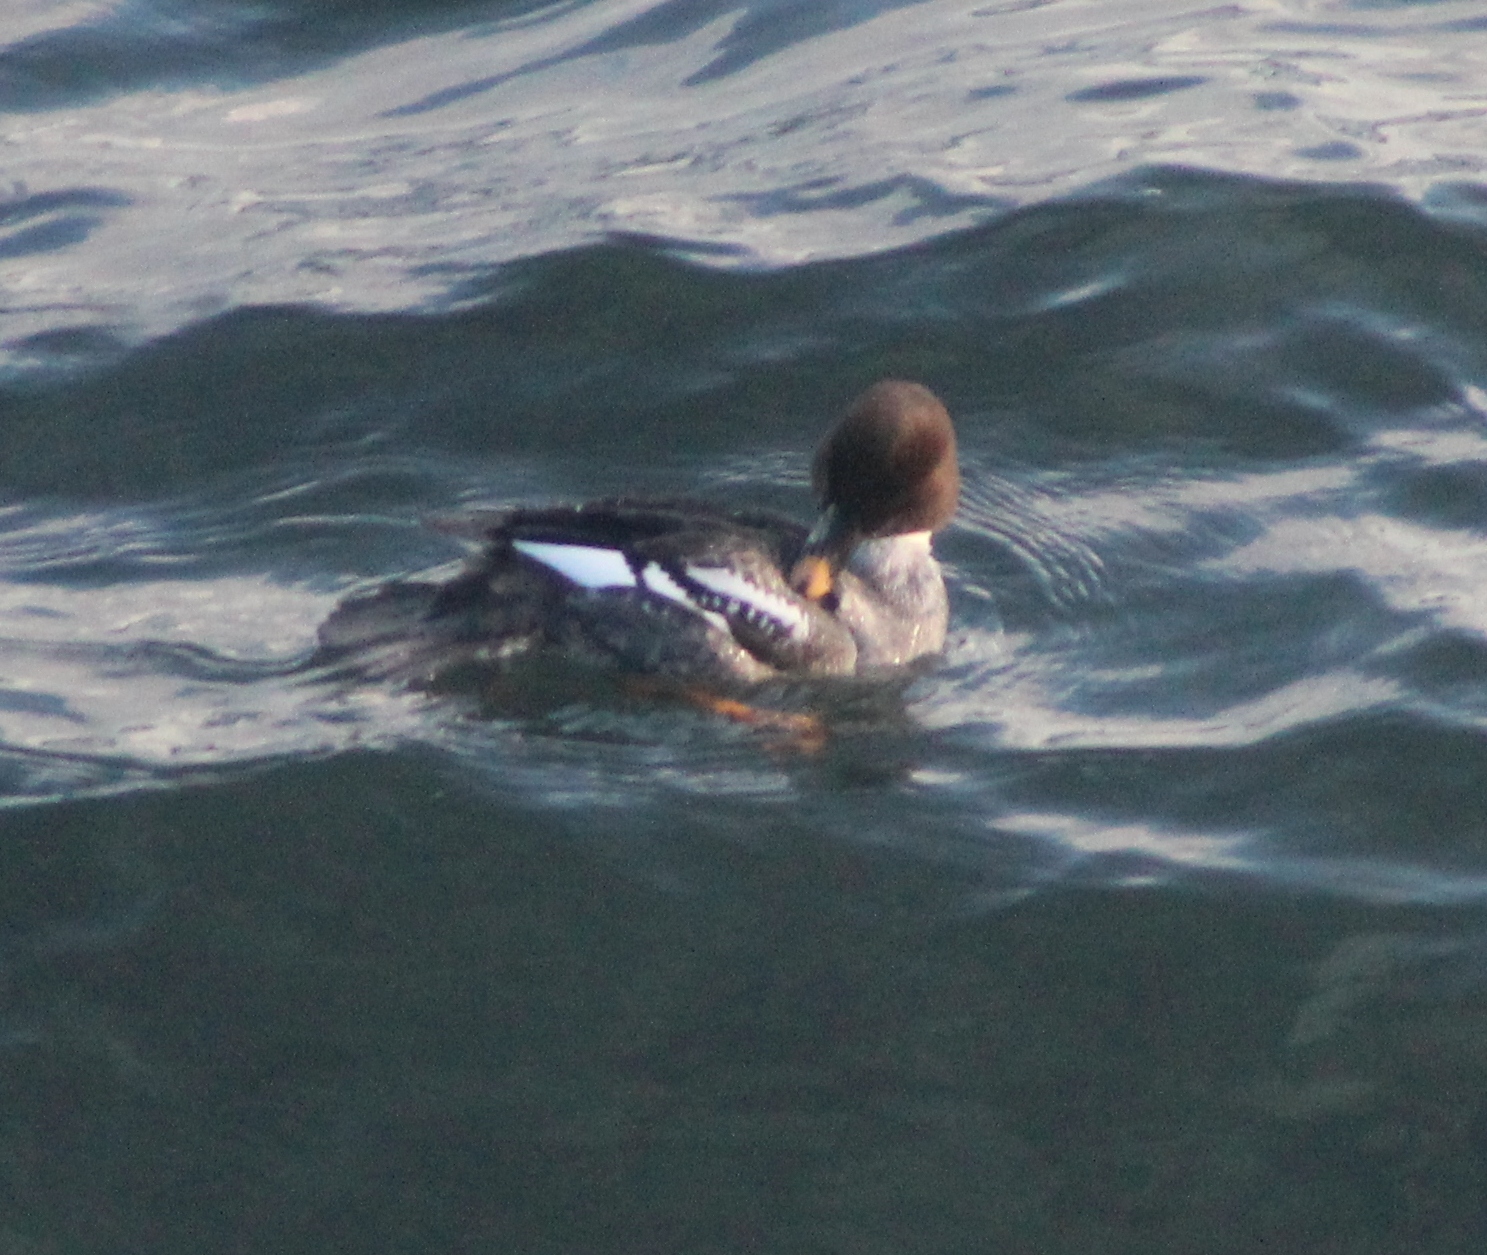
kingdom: Animalia
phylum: Chordata
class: Aves
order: Anseriformes
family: Anatidae
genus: Bucephala
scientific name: Bucephala clangula
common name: Common goldeneye
